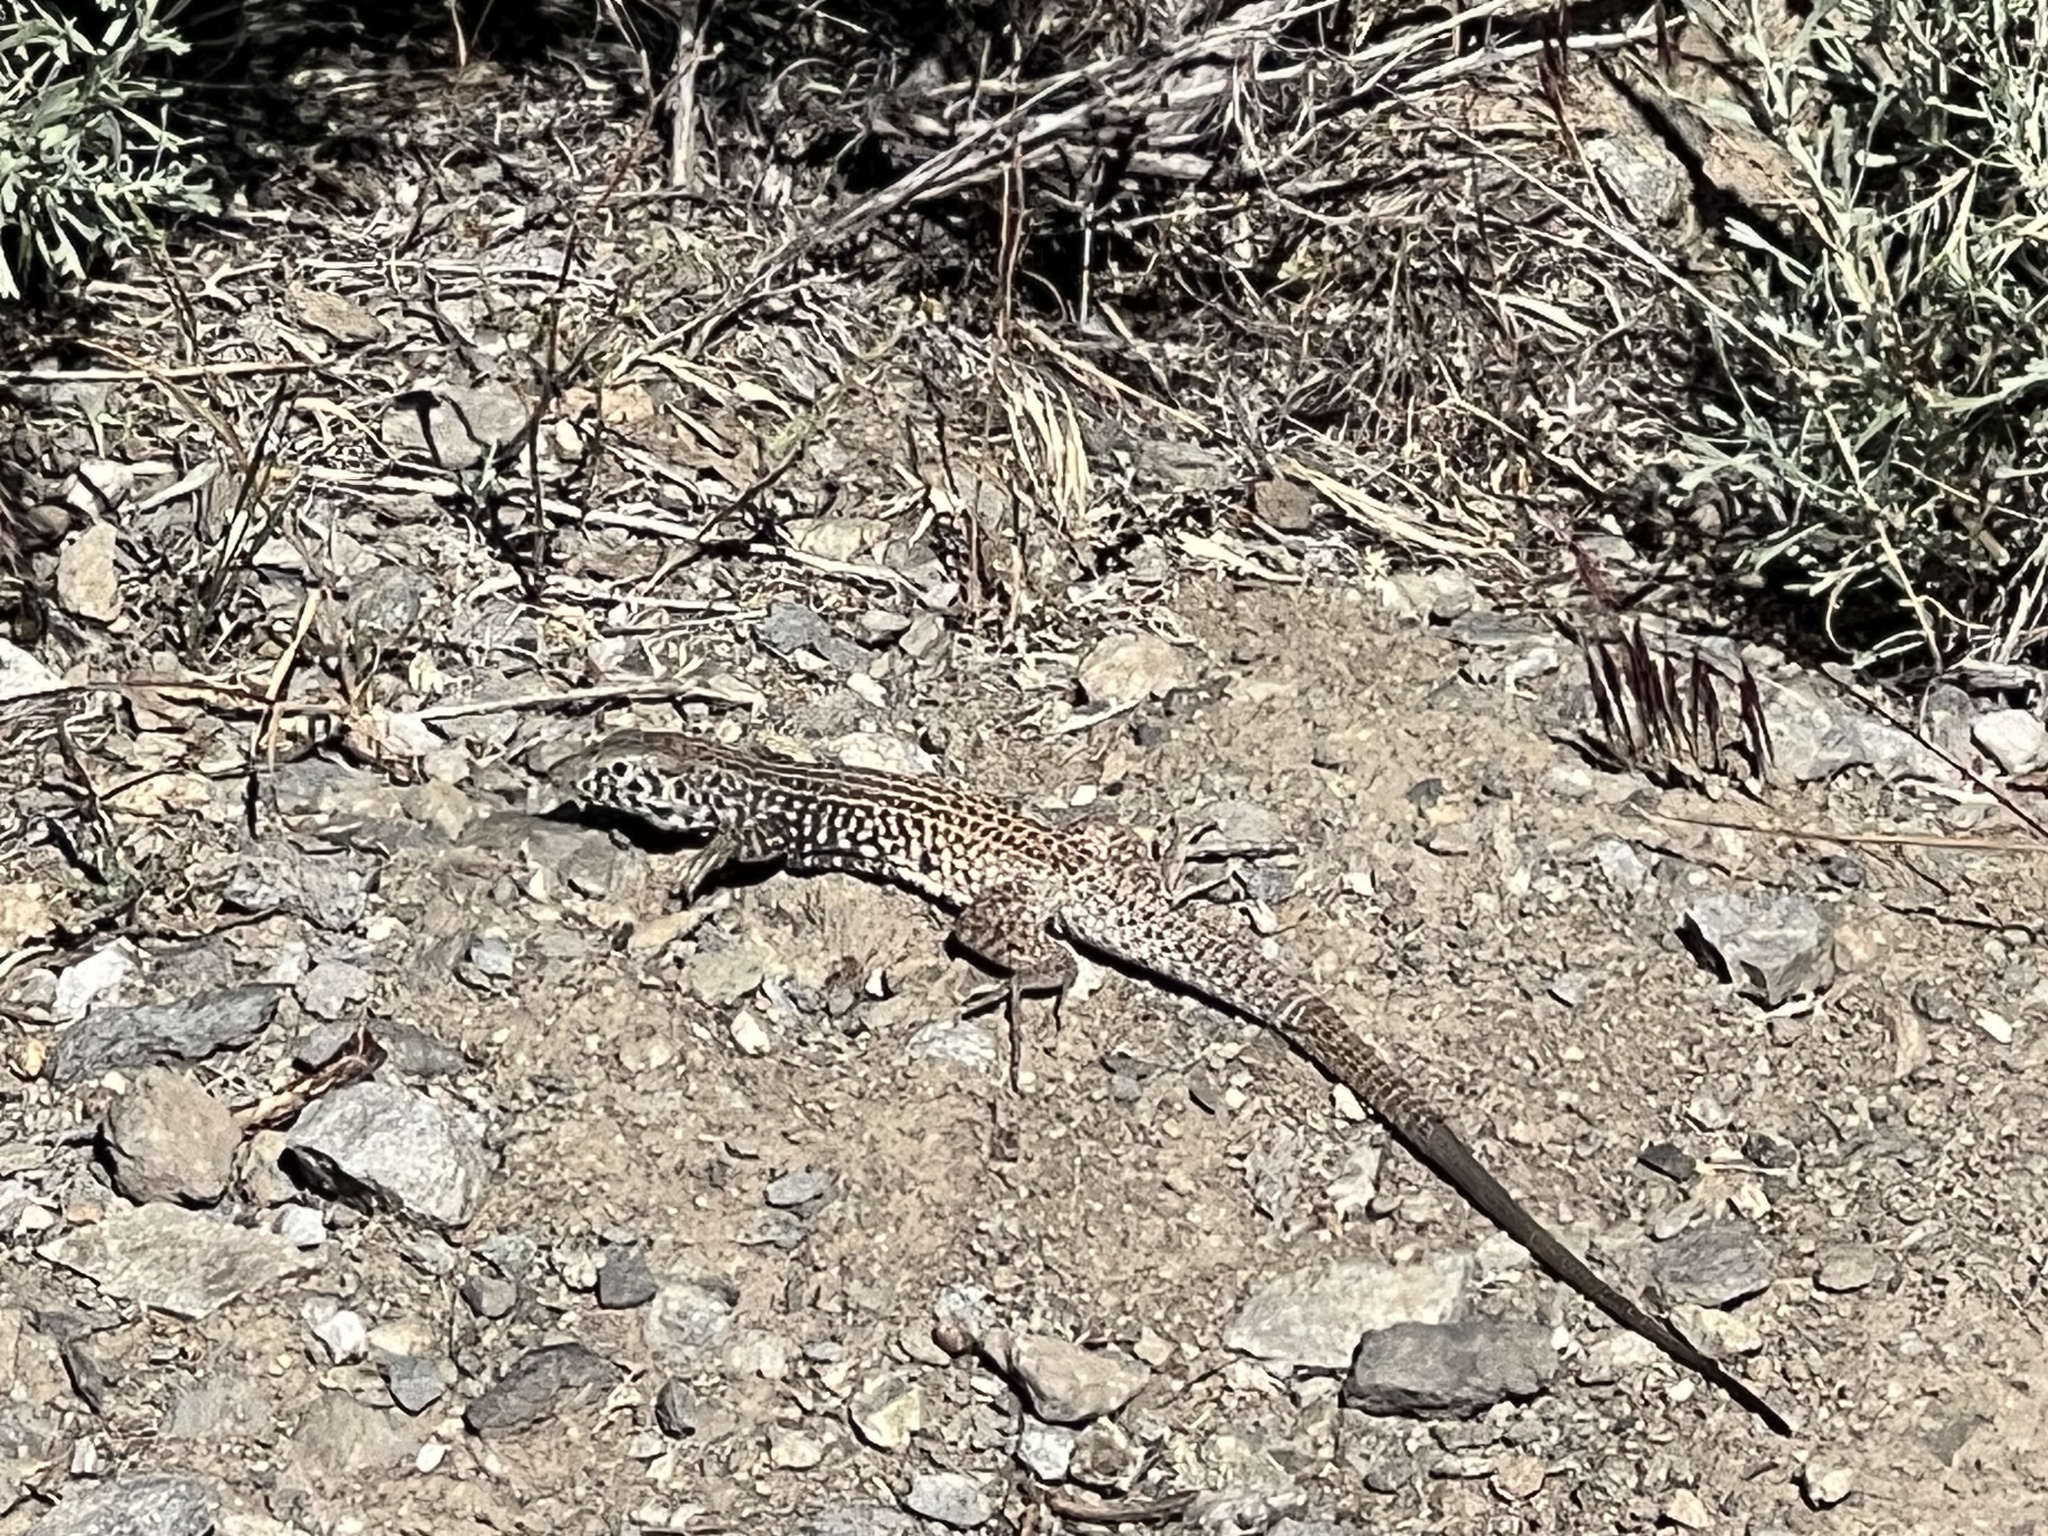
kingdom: Animalia
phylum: Chordata
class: Squamata
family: Teiidae
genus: Aspidoscelis
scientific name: Aspidoscelis tigris
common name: Tiger whiptail
